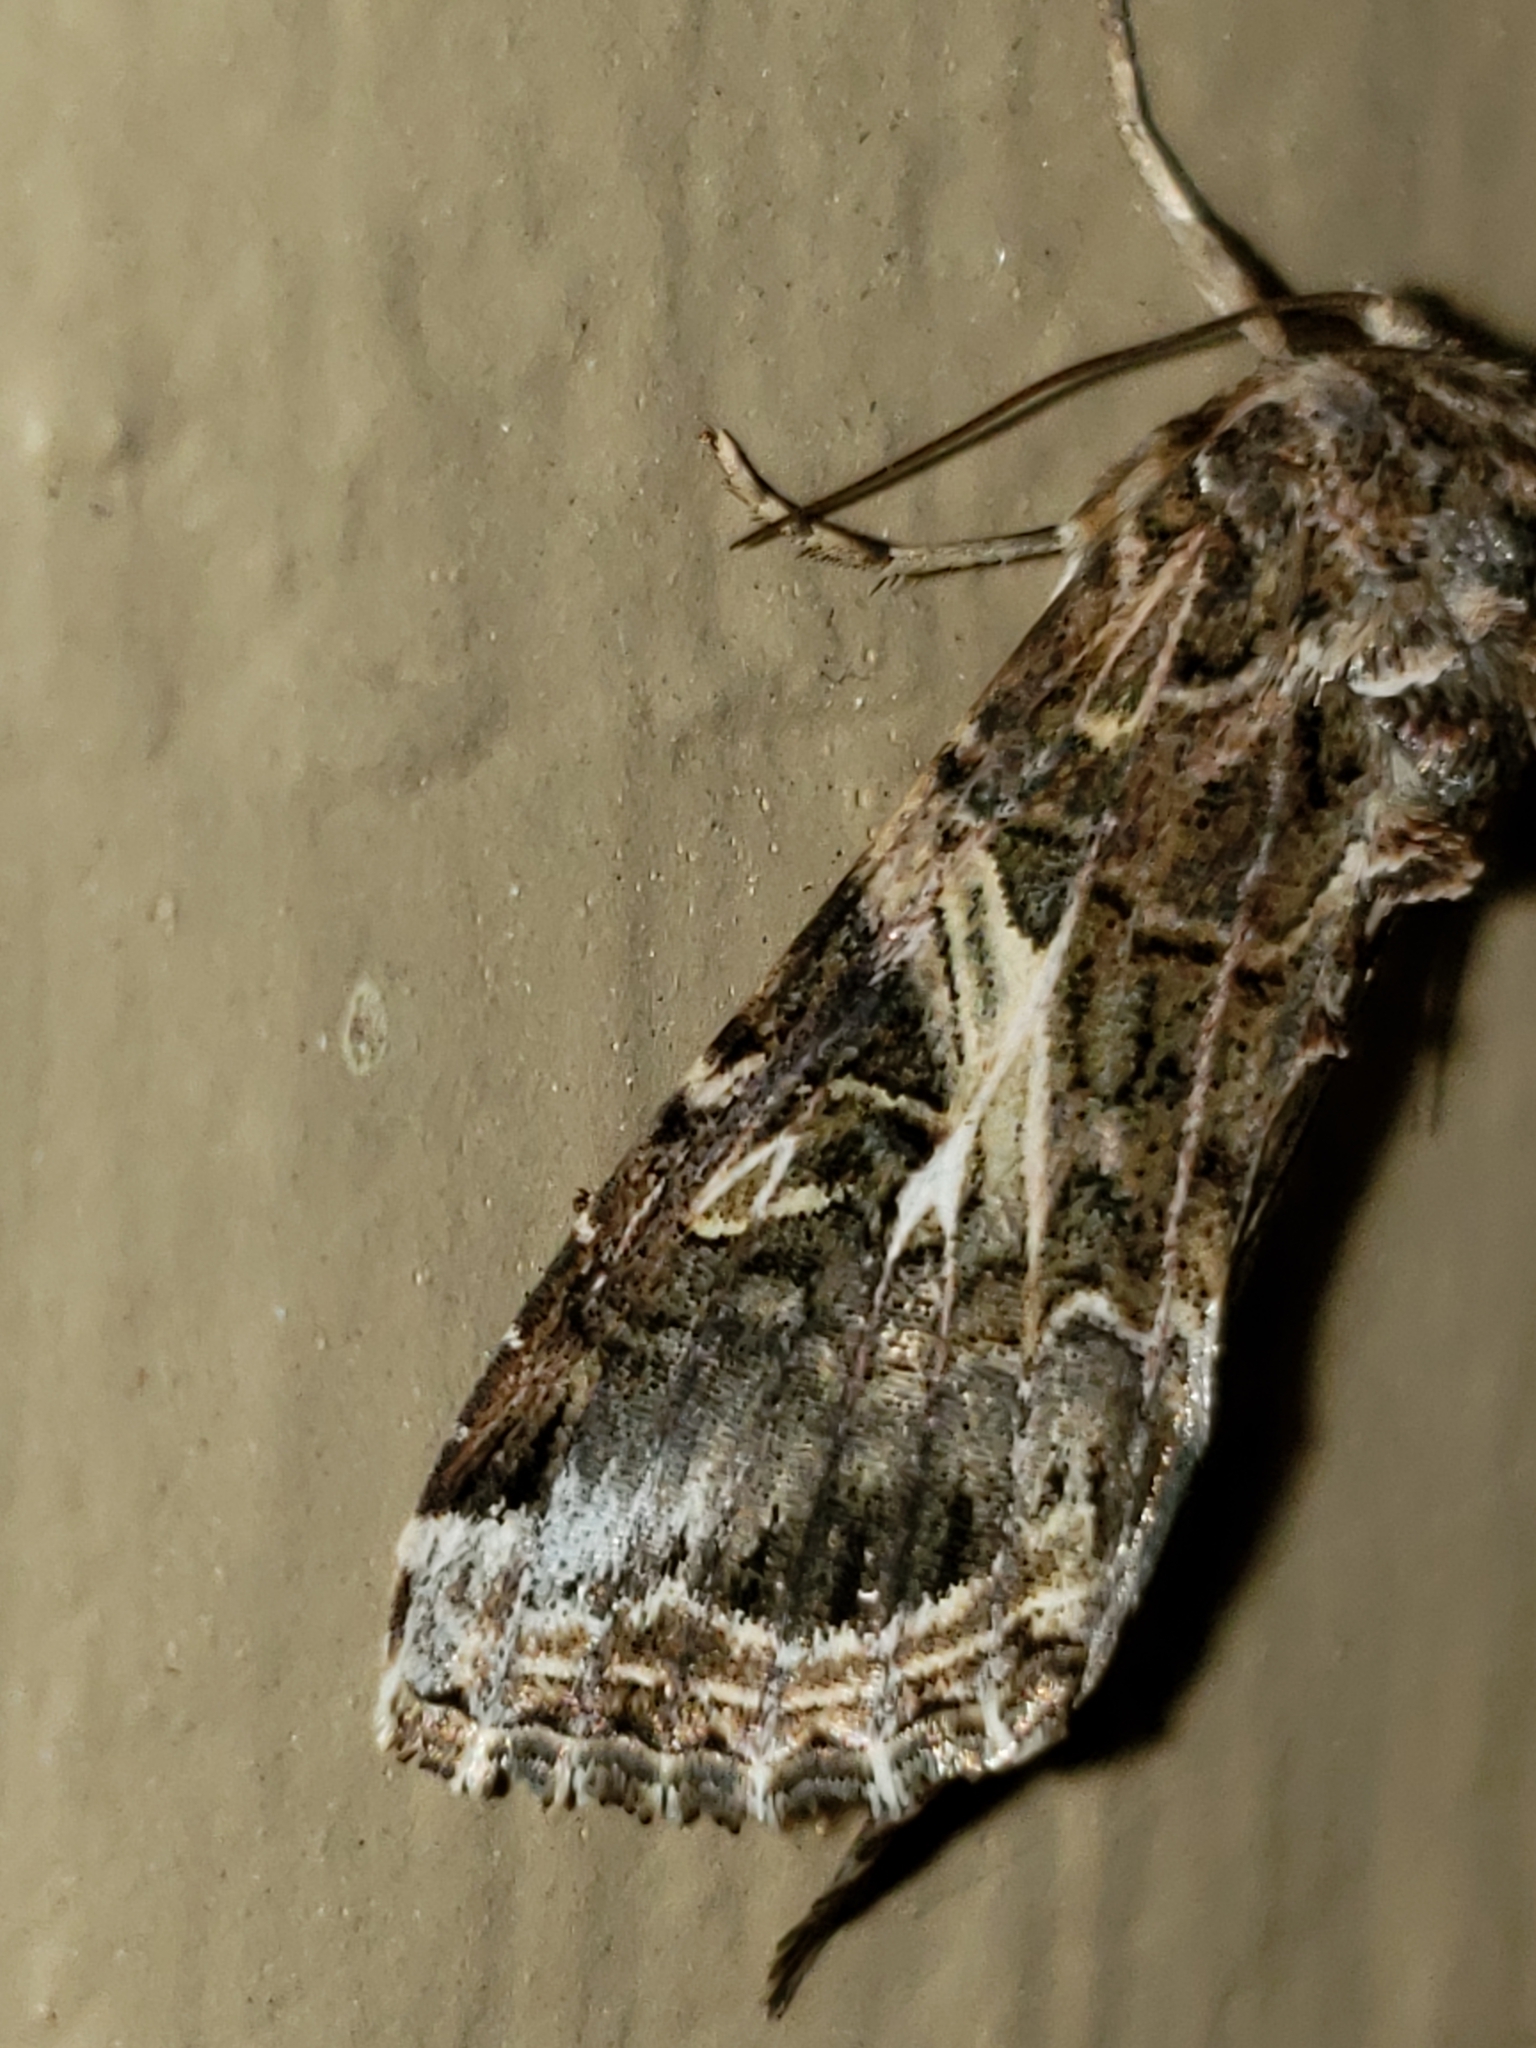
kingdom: Animalia
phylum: Arthropoda
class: Insecta
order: Lepidoptera
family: Noctuidae
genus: Spodoptera
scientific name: Spodoptera ornithogalli
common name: Yellow-striped armyworm
